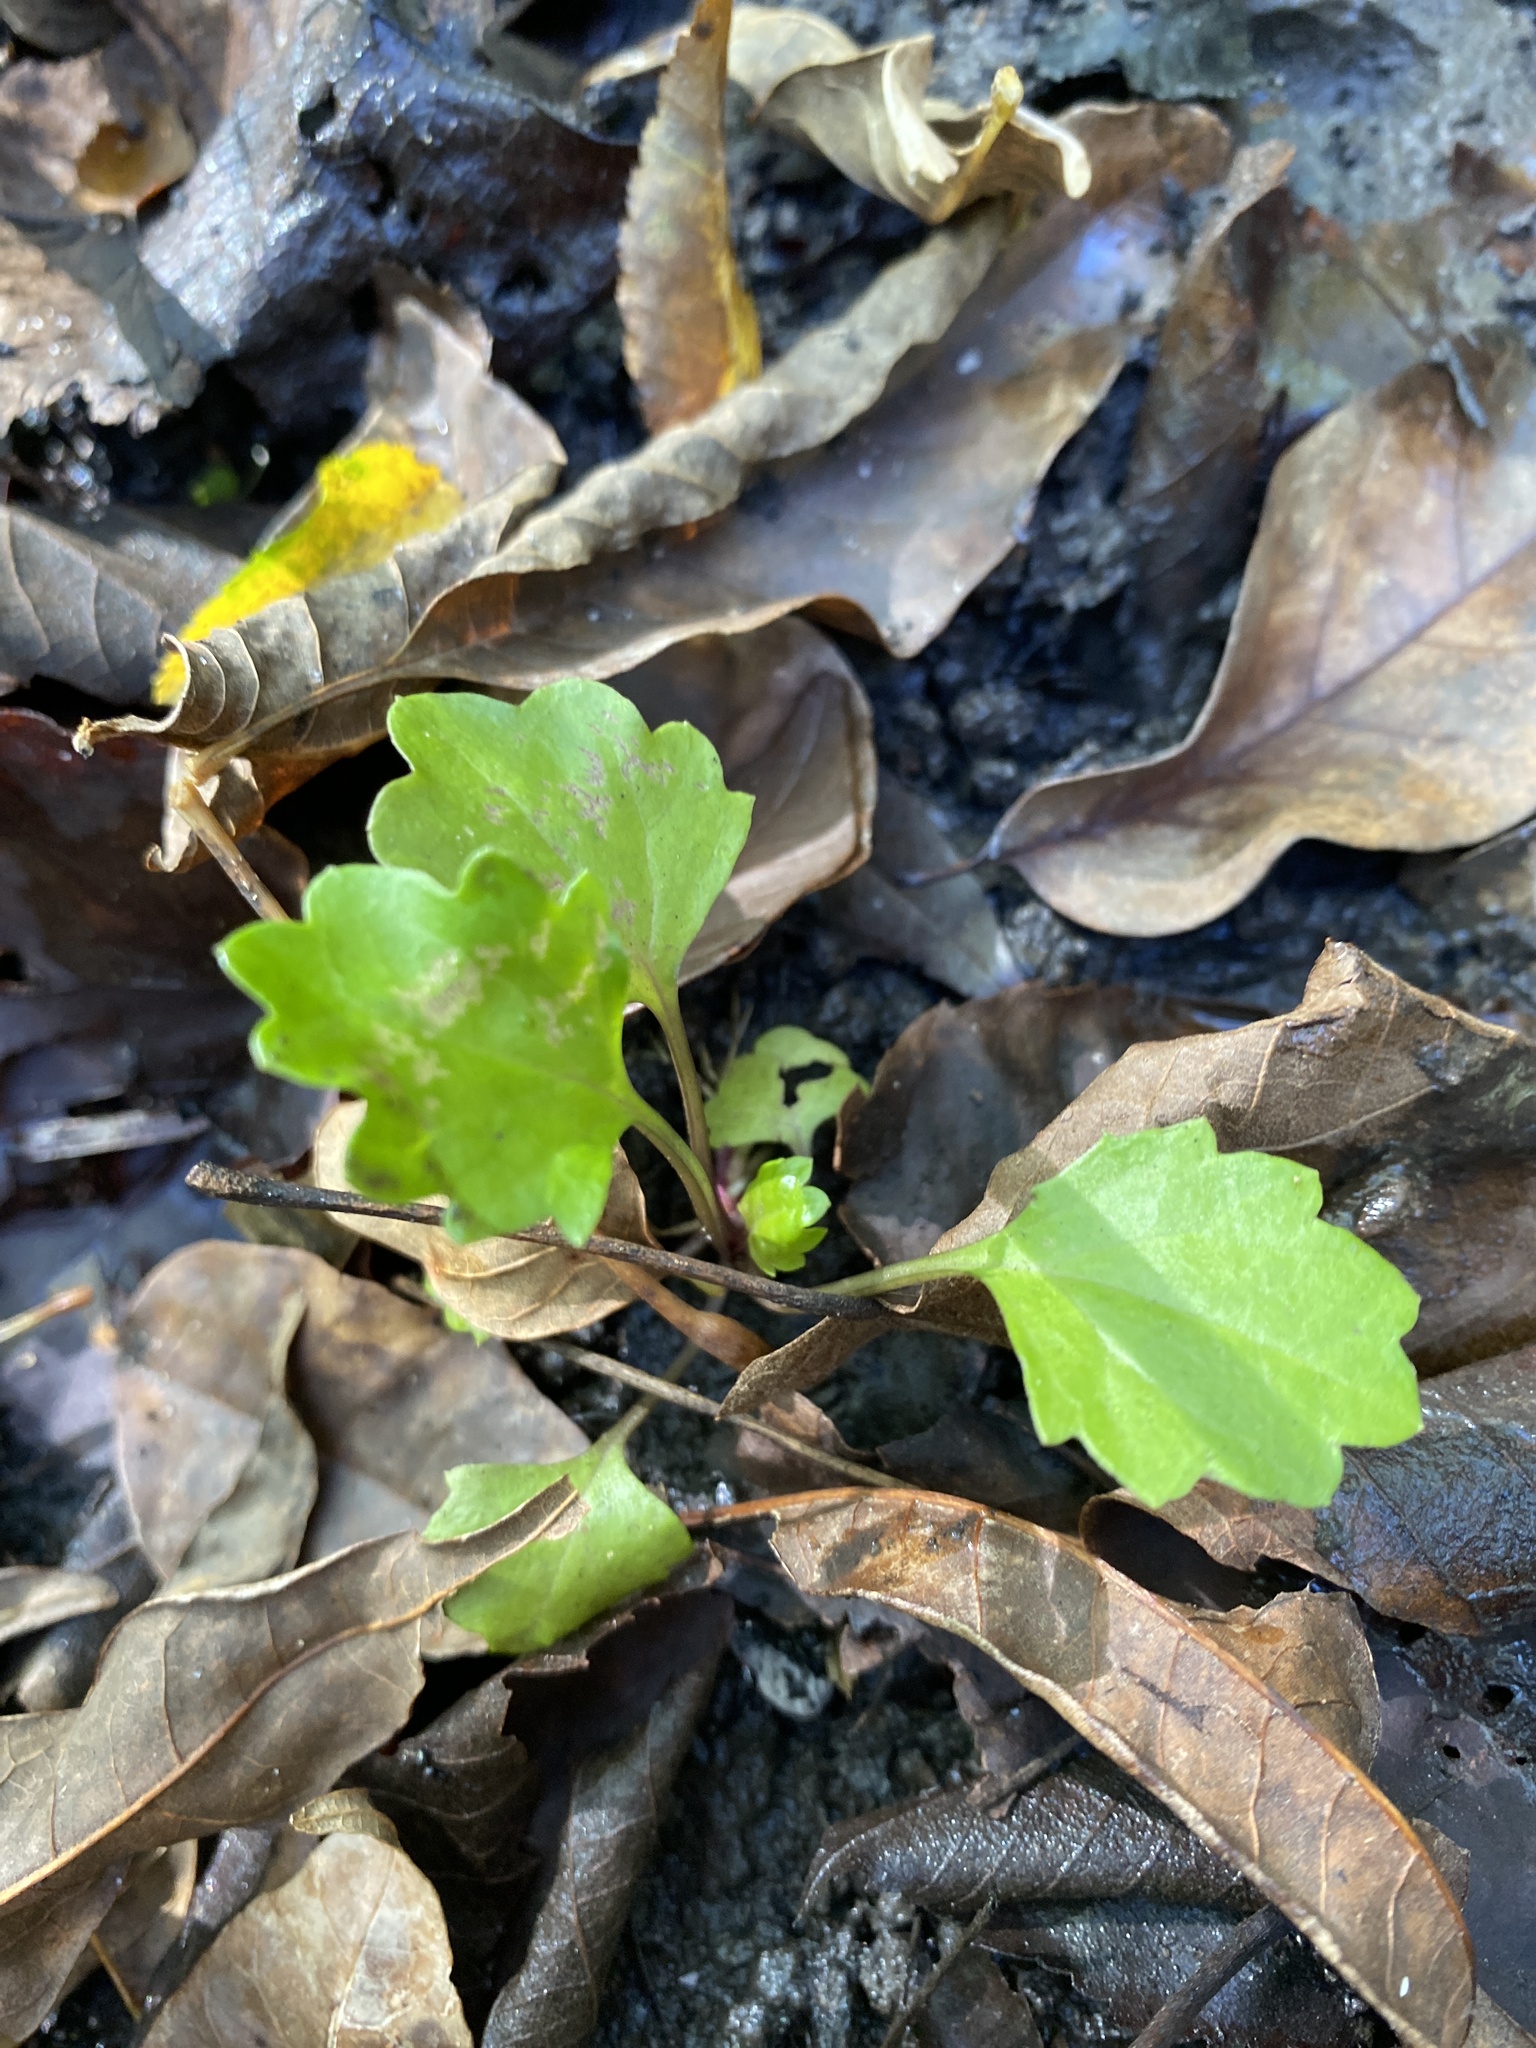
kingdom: Plantae
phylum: Tracheophyta
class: Magnoliopsida
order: Asterales
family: Asteraceae
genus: Packera
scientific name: Packera glabella
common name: Butterweed
